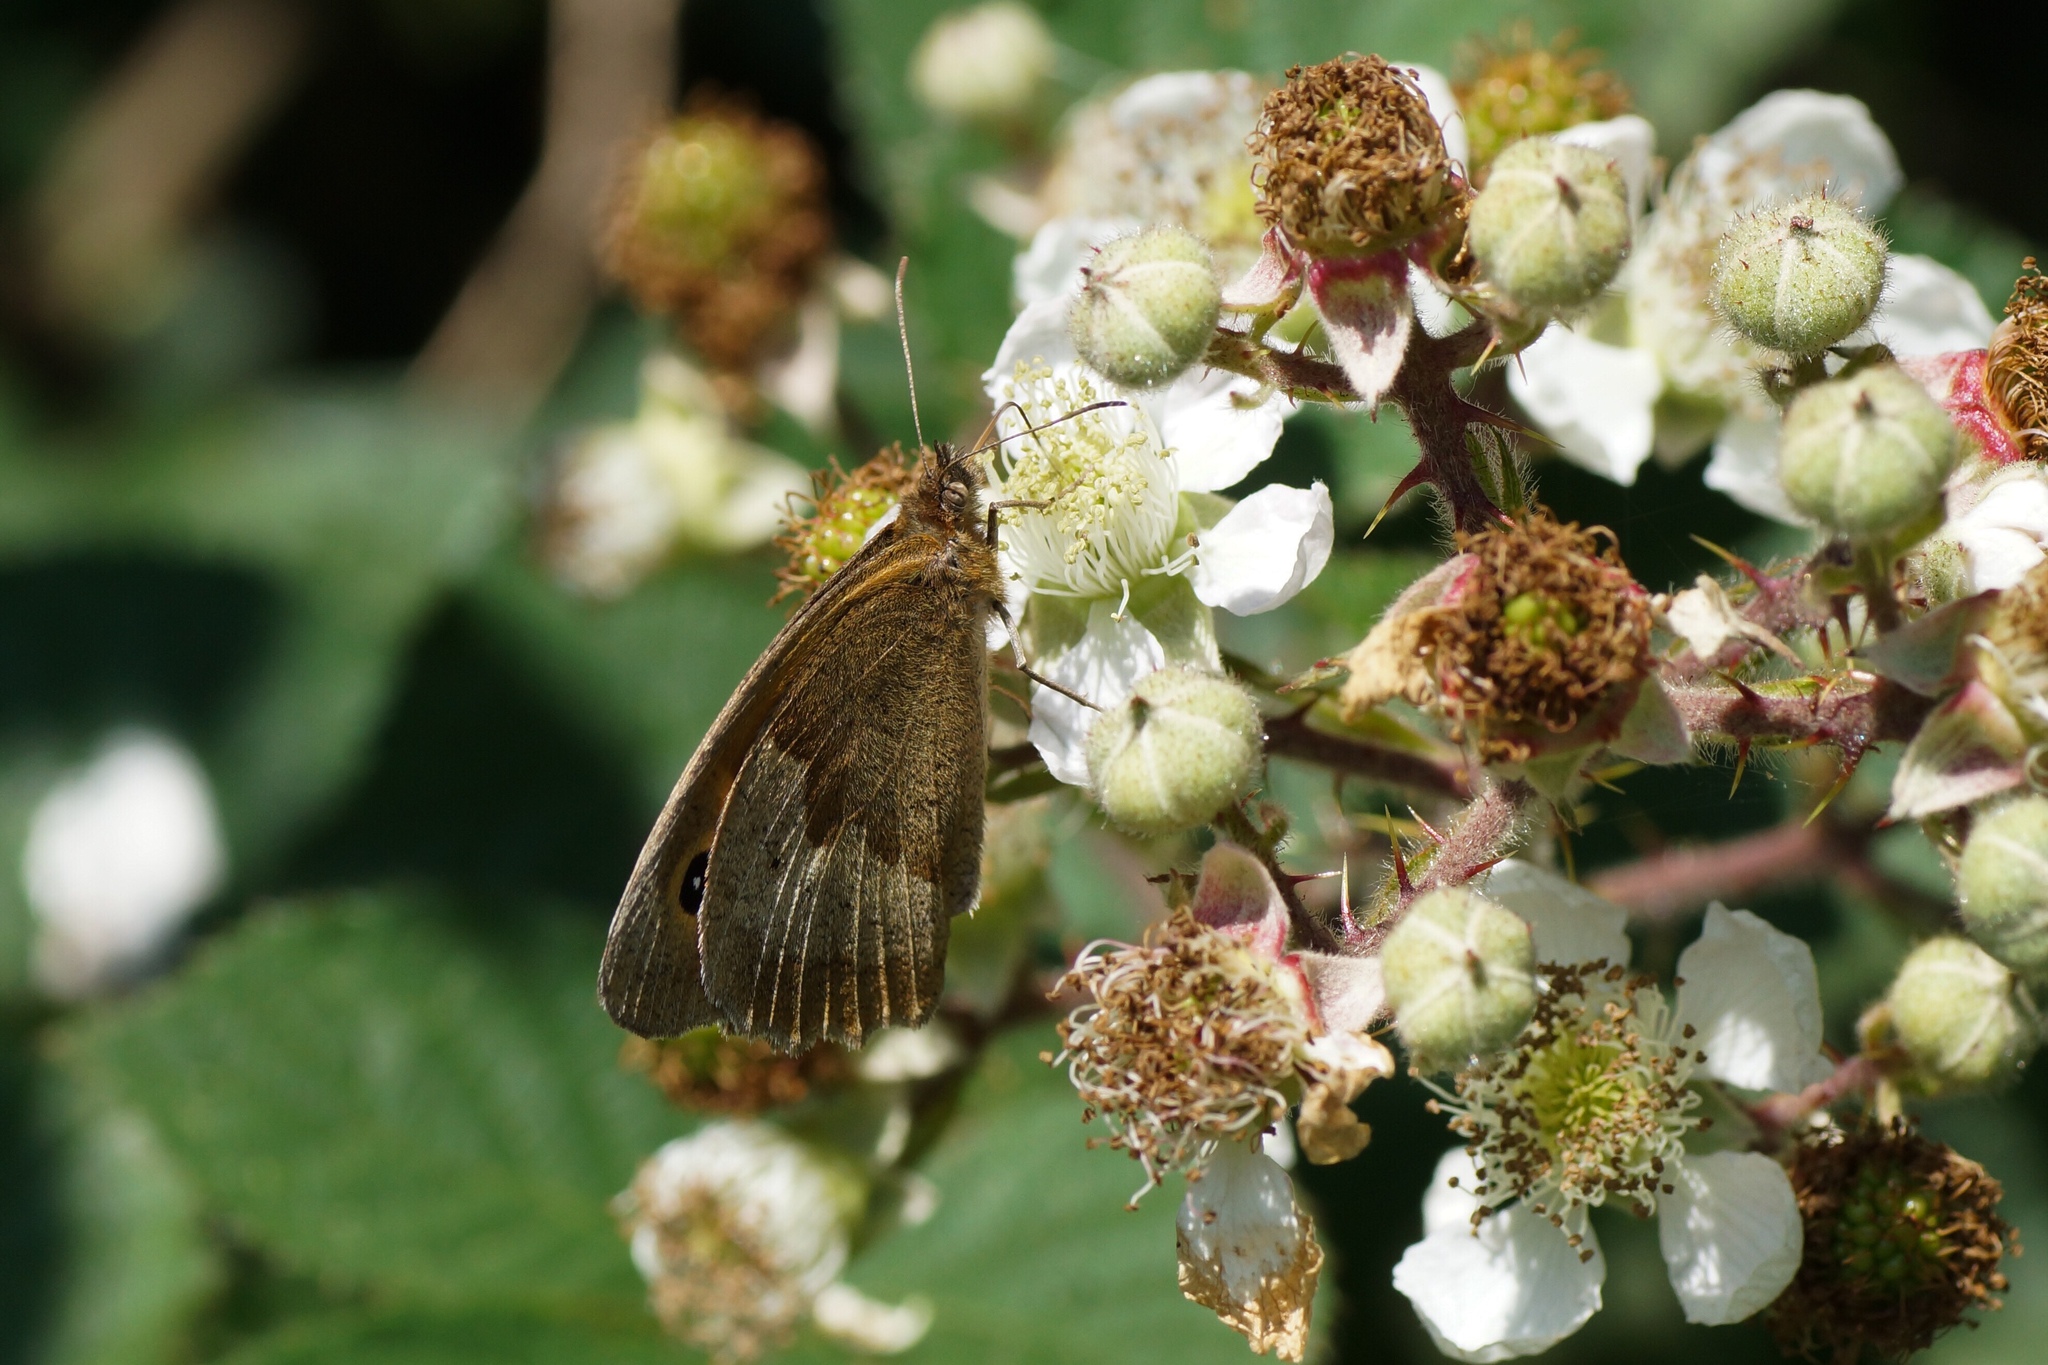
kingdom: Animalia
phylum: Arthropoda
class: Insecta
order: Lepidoptera
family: Nymphalidae
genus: Maniola
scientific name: Maniola jurtina
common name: Meadow brown
